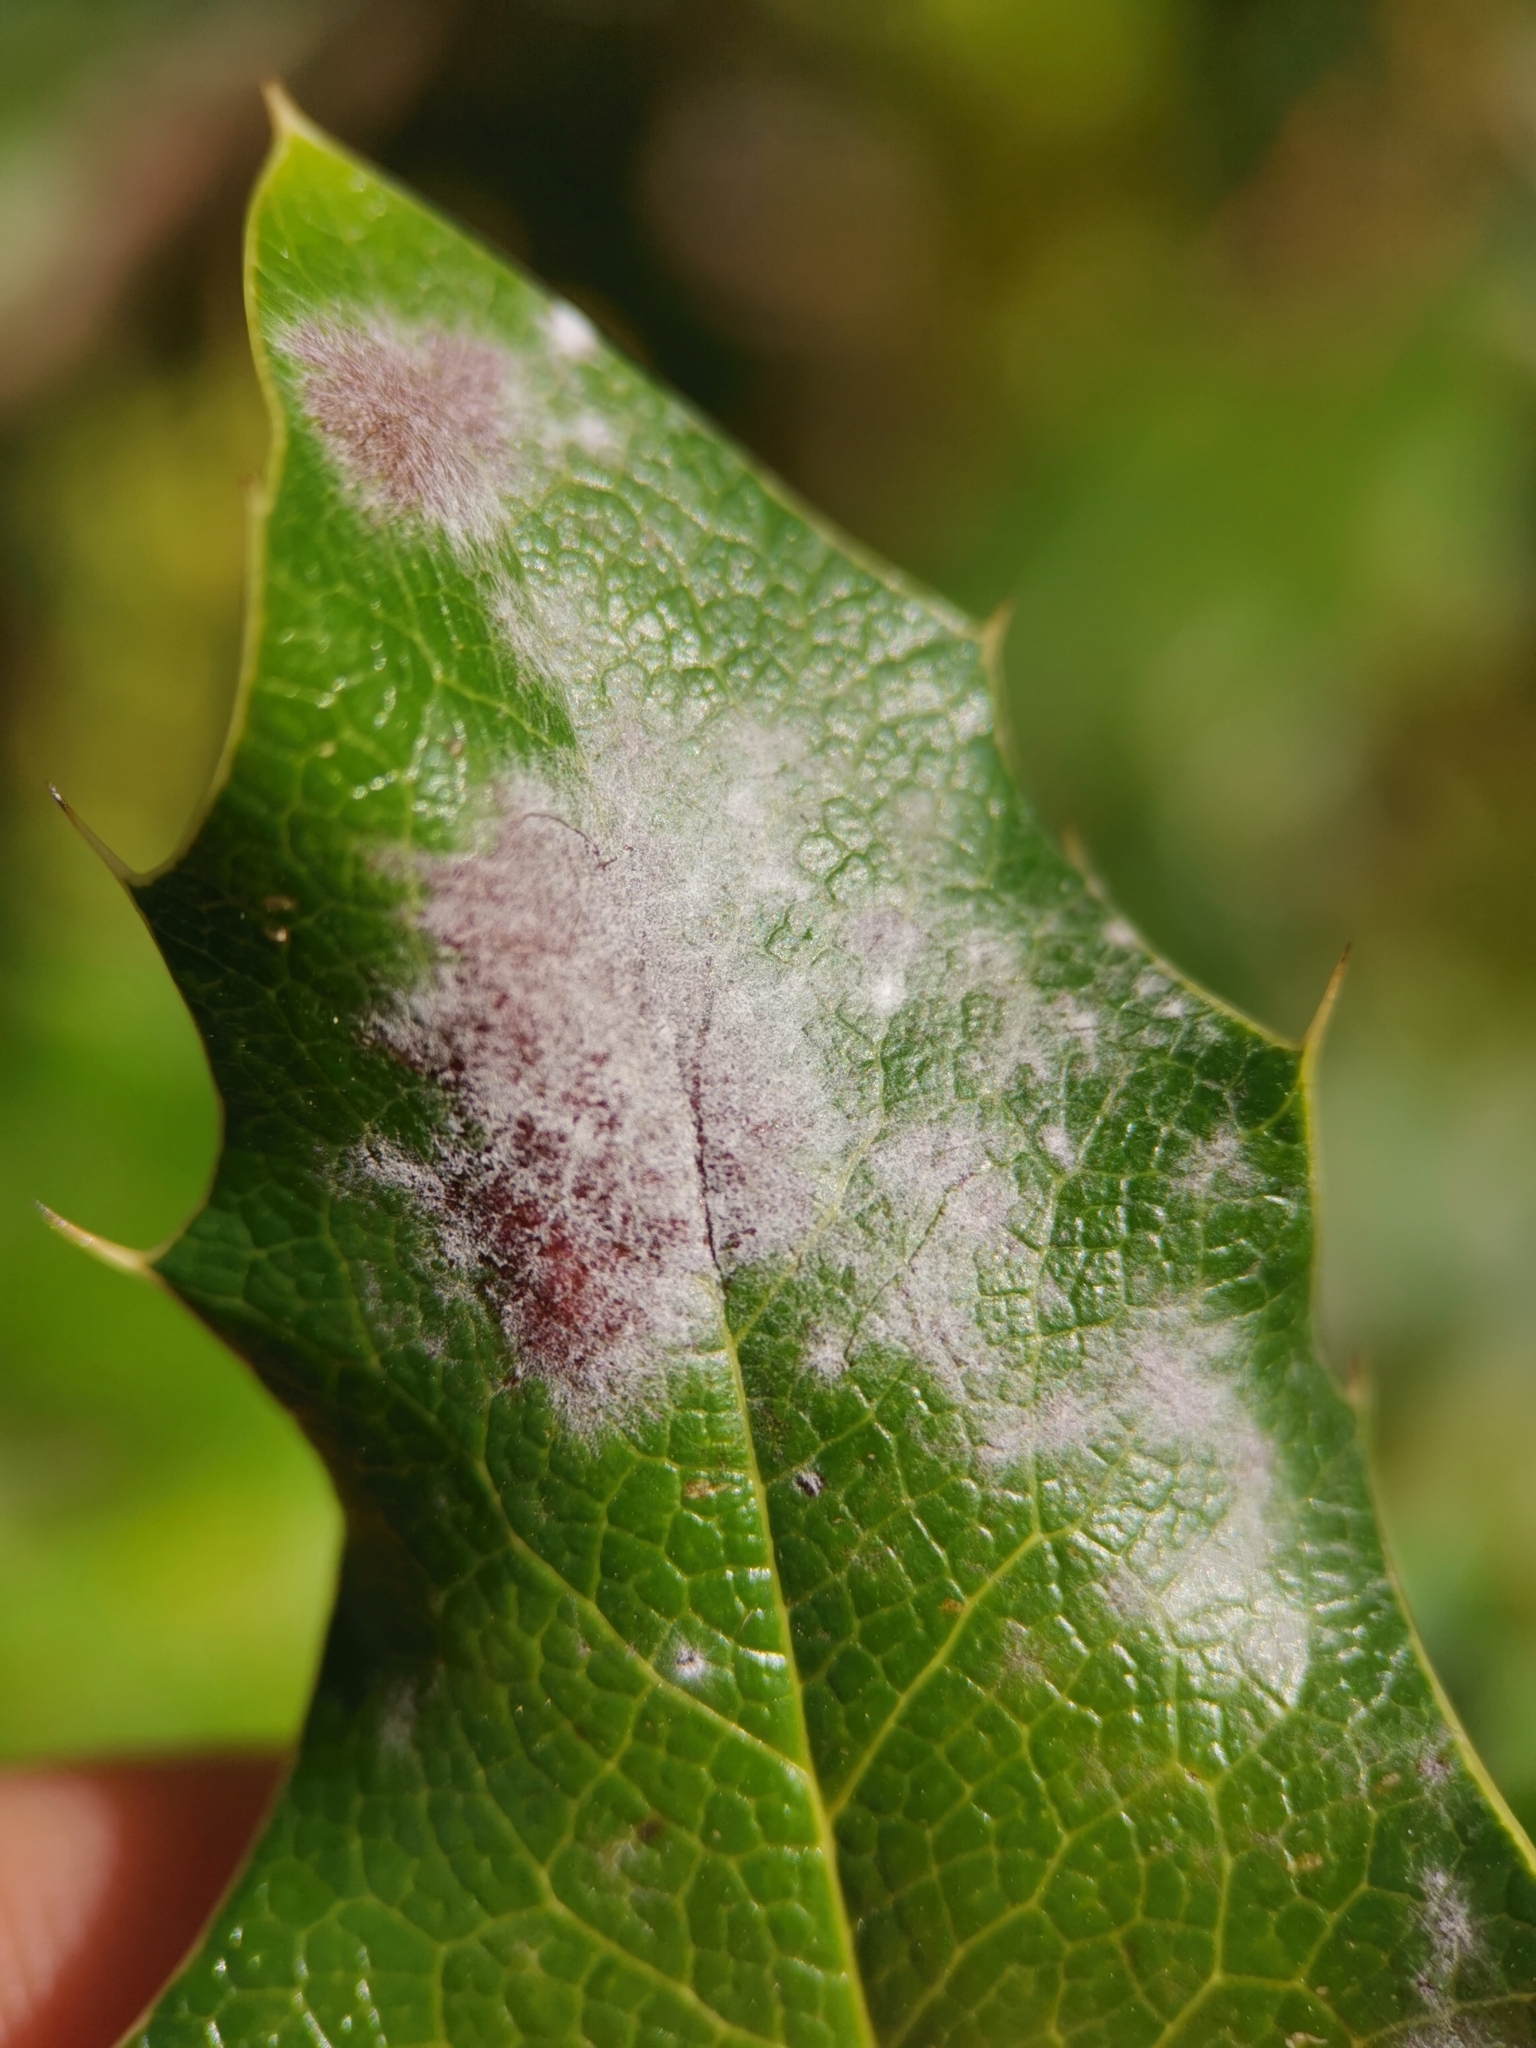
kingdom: Fungi
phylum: Ascomycota
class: Leotiomycetes
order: Helotiales
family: Erysiphaceae
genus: Erysiphe
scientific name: Erysiphe berberidis
